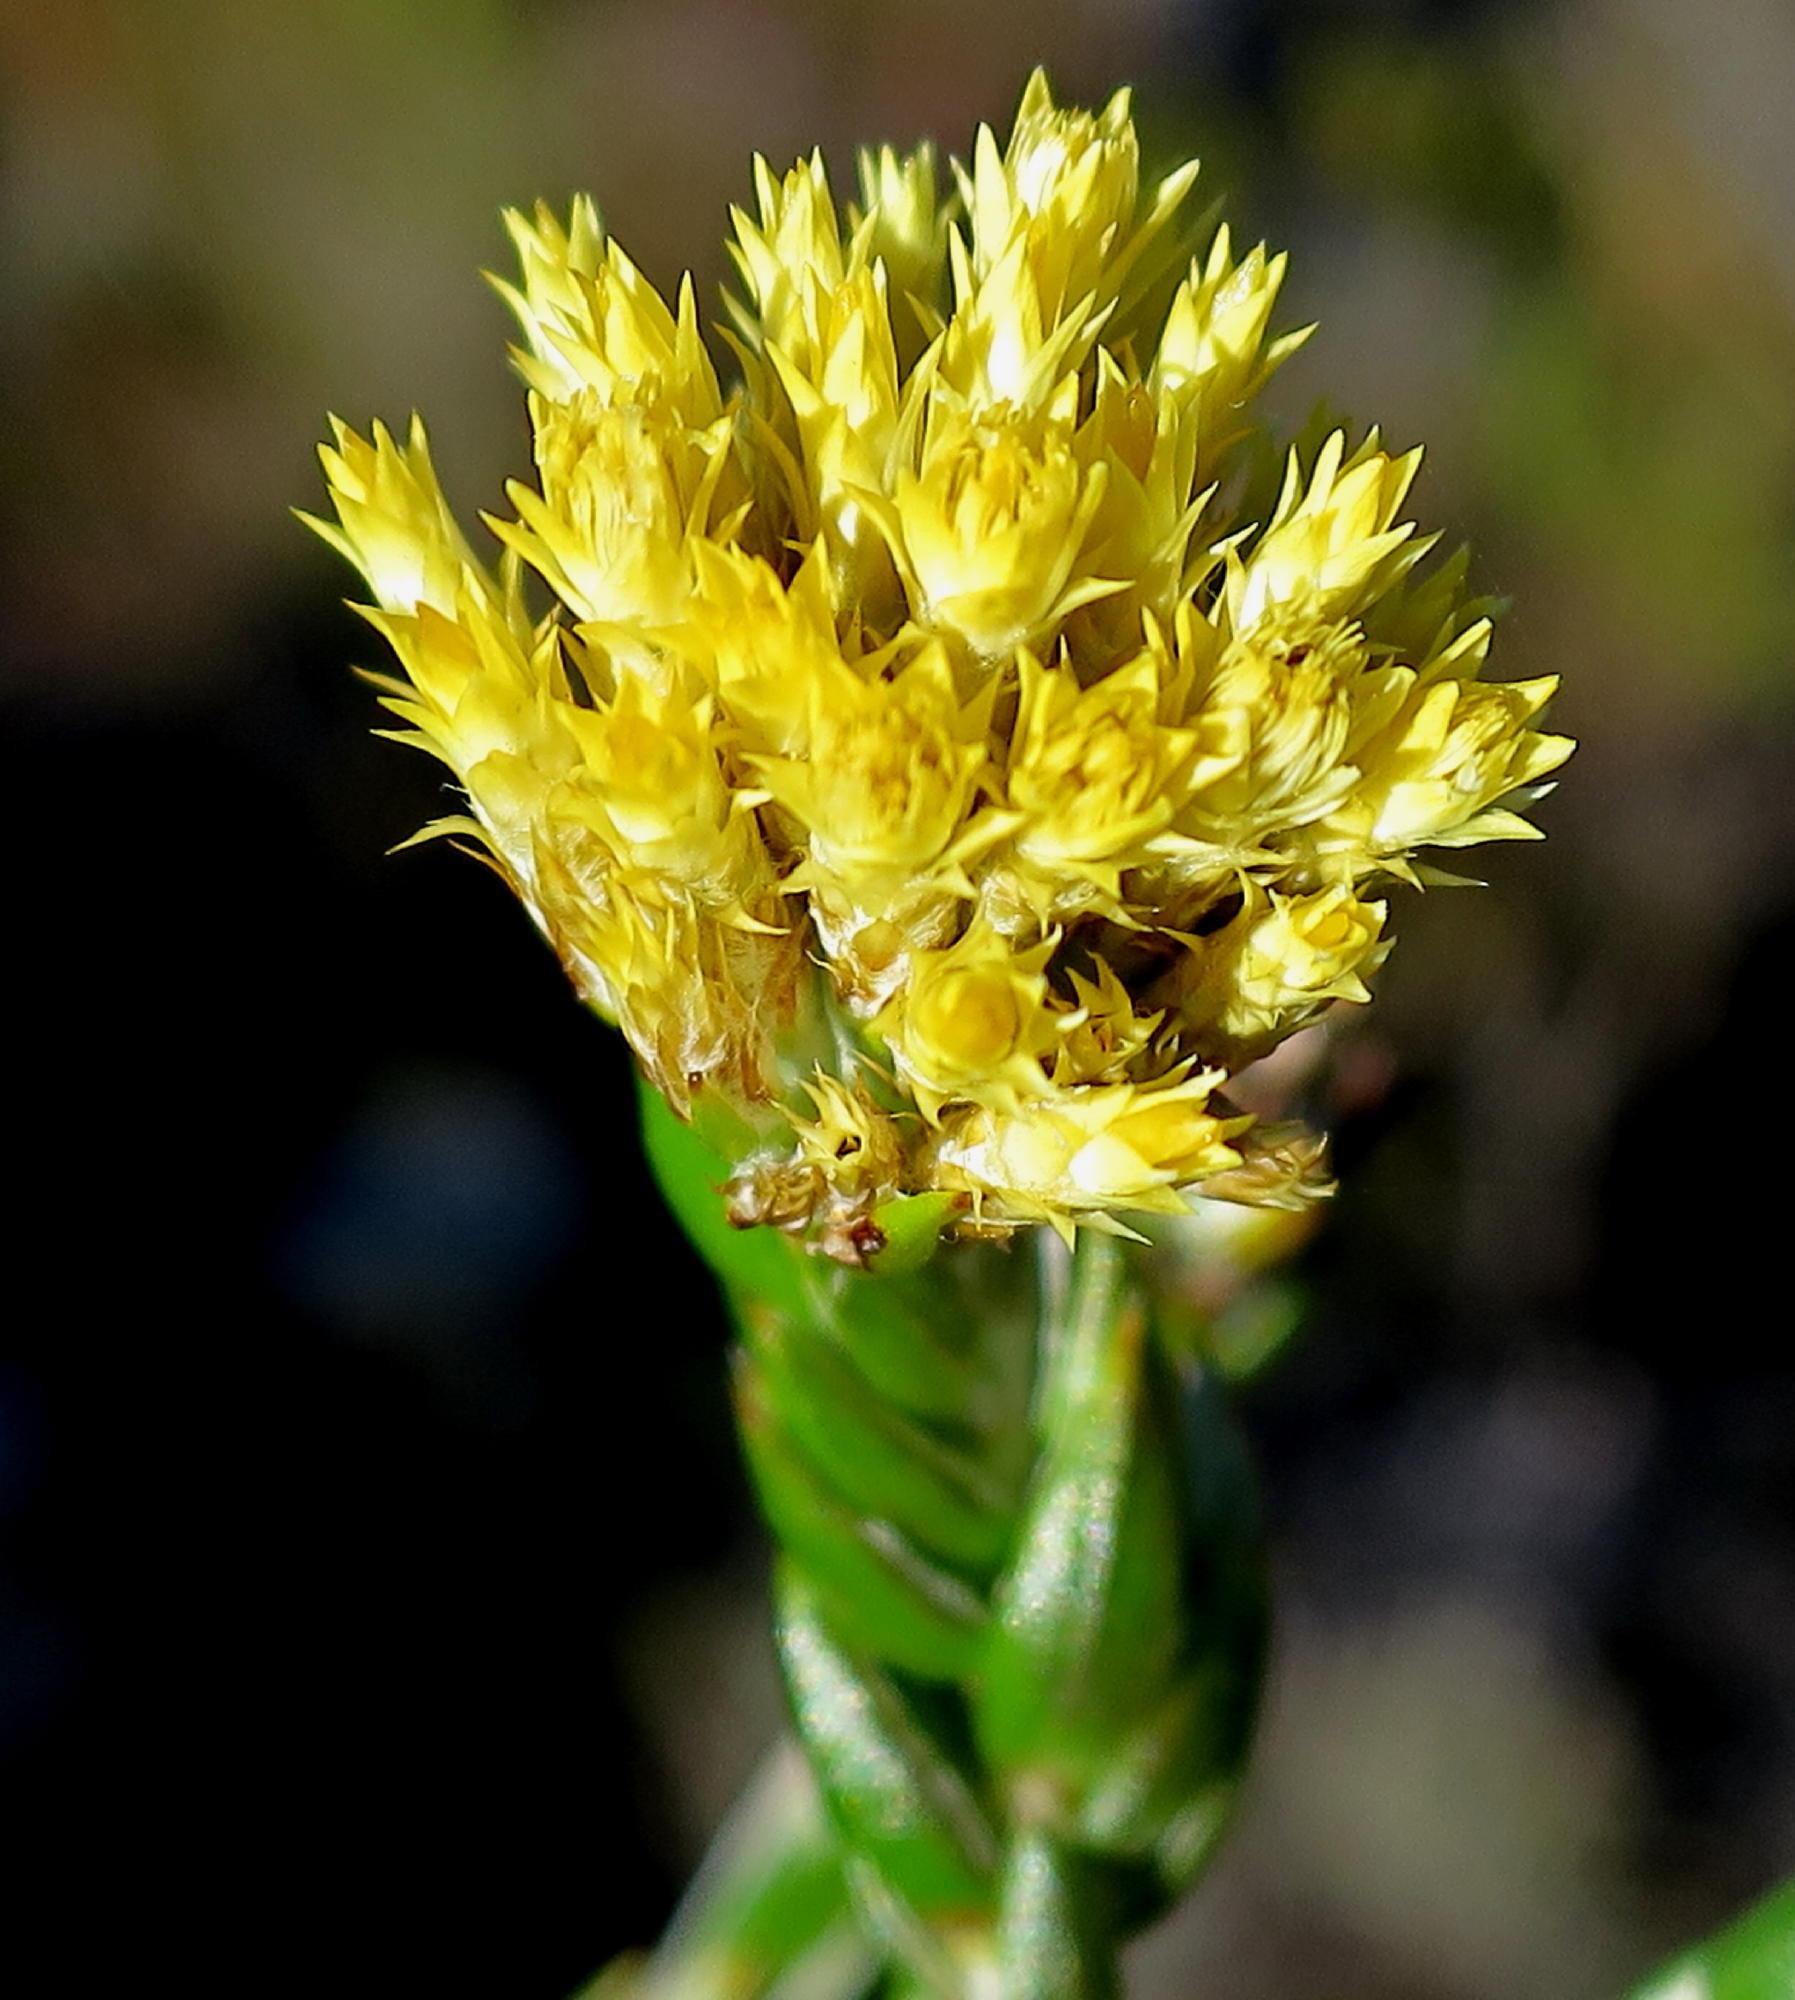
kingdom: Plantae
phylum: Tracheophyta
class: Magnoliopsida
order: Asterales
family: Asteraceae
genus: Metalasia
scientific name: Metalasia pulcherrima
